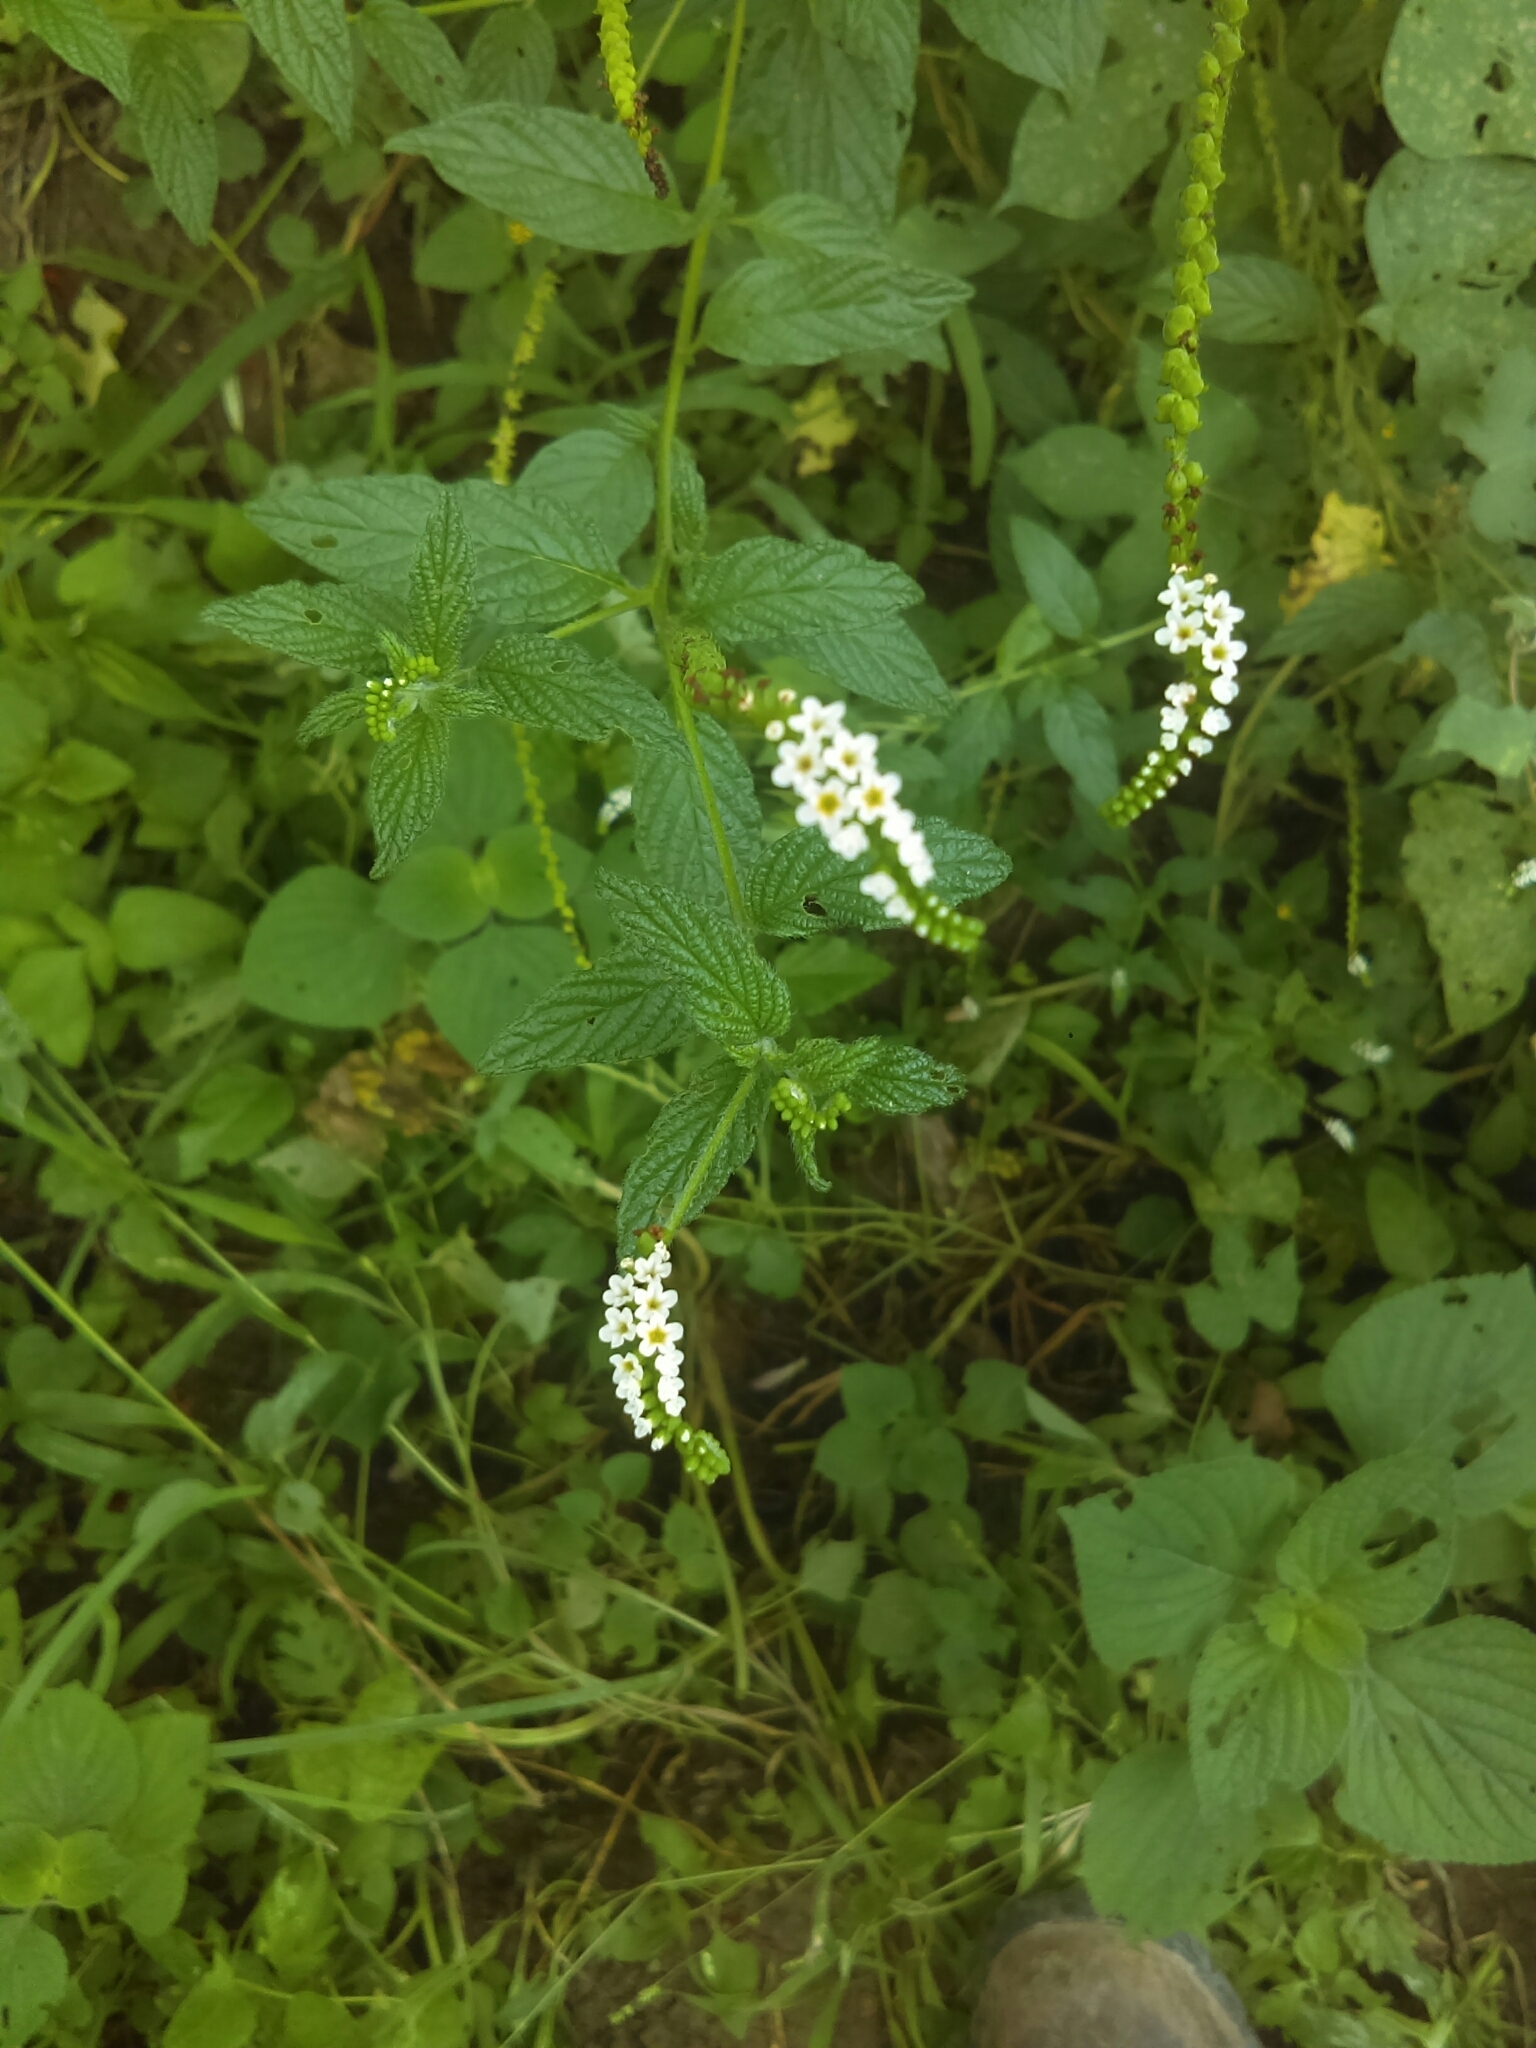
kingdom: Plantae
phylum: Tracheophyta
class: Magnoliopsida
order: Boraginales
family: Heliotropiaceae
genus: Heliotropium
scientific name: Heliotropium angiospermum
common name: Eye bright
